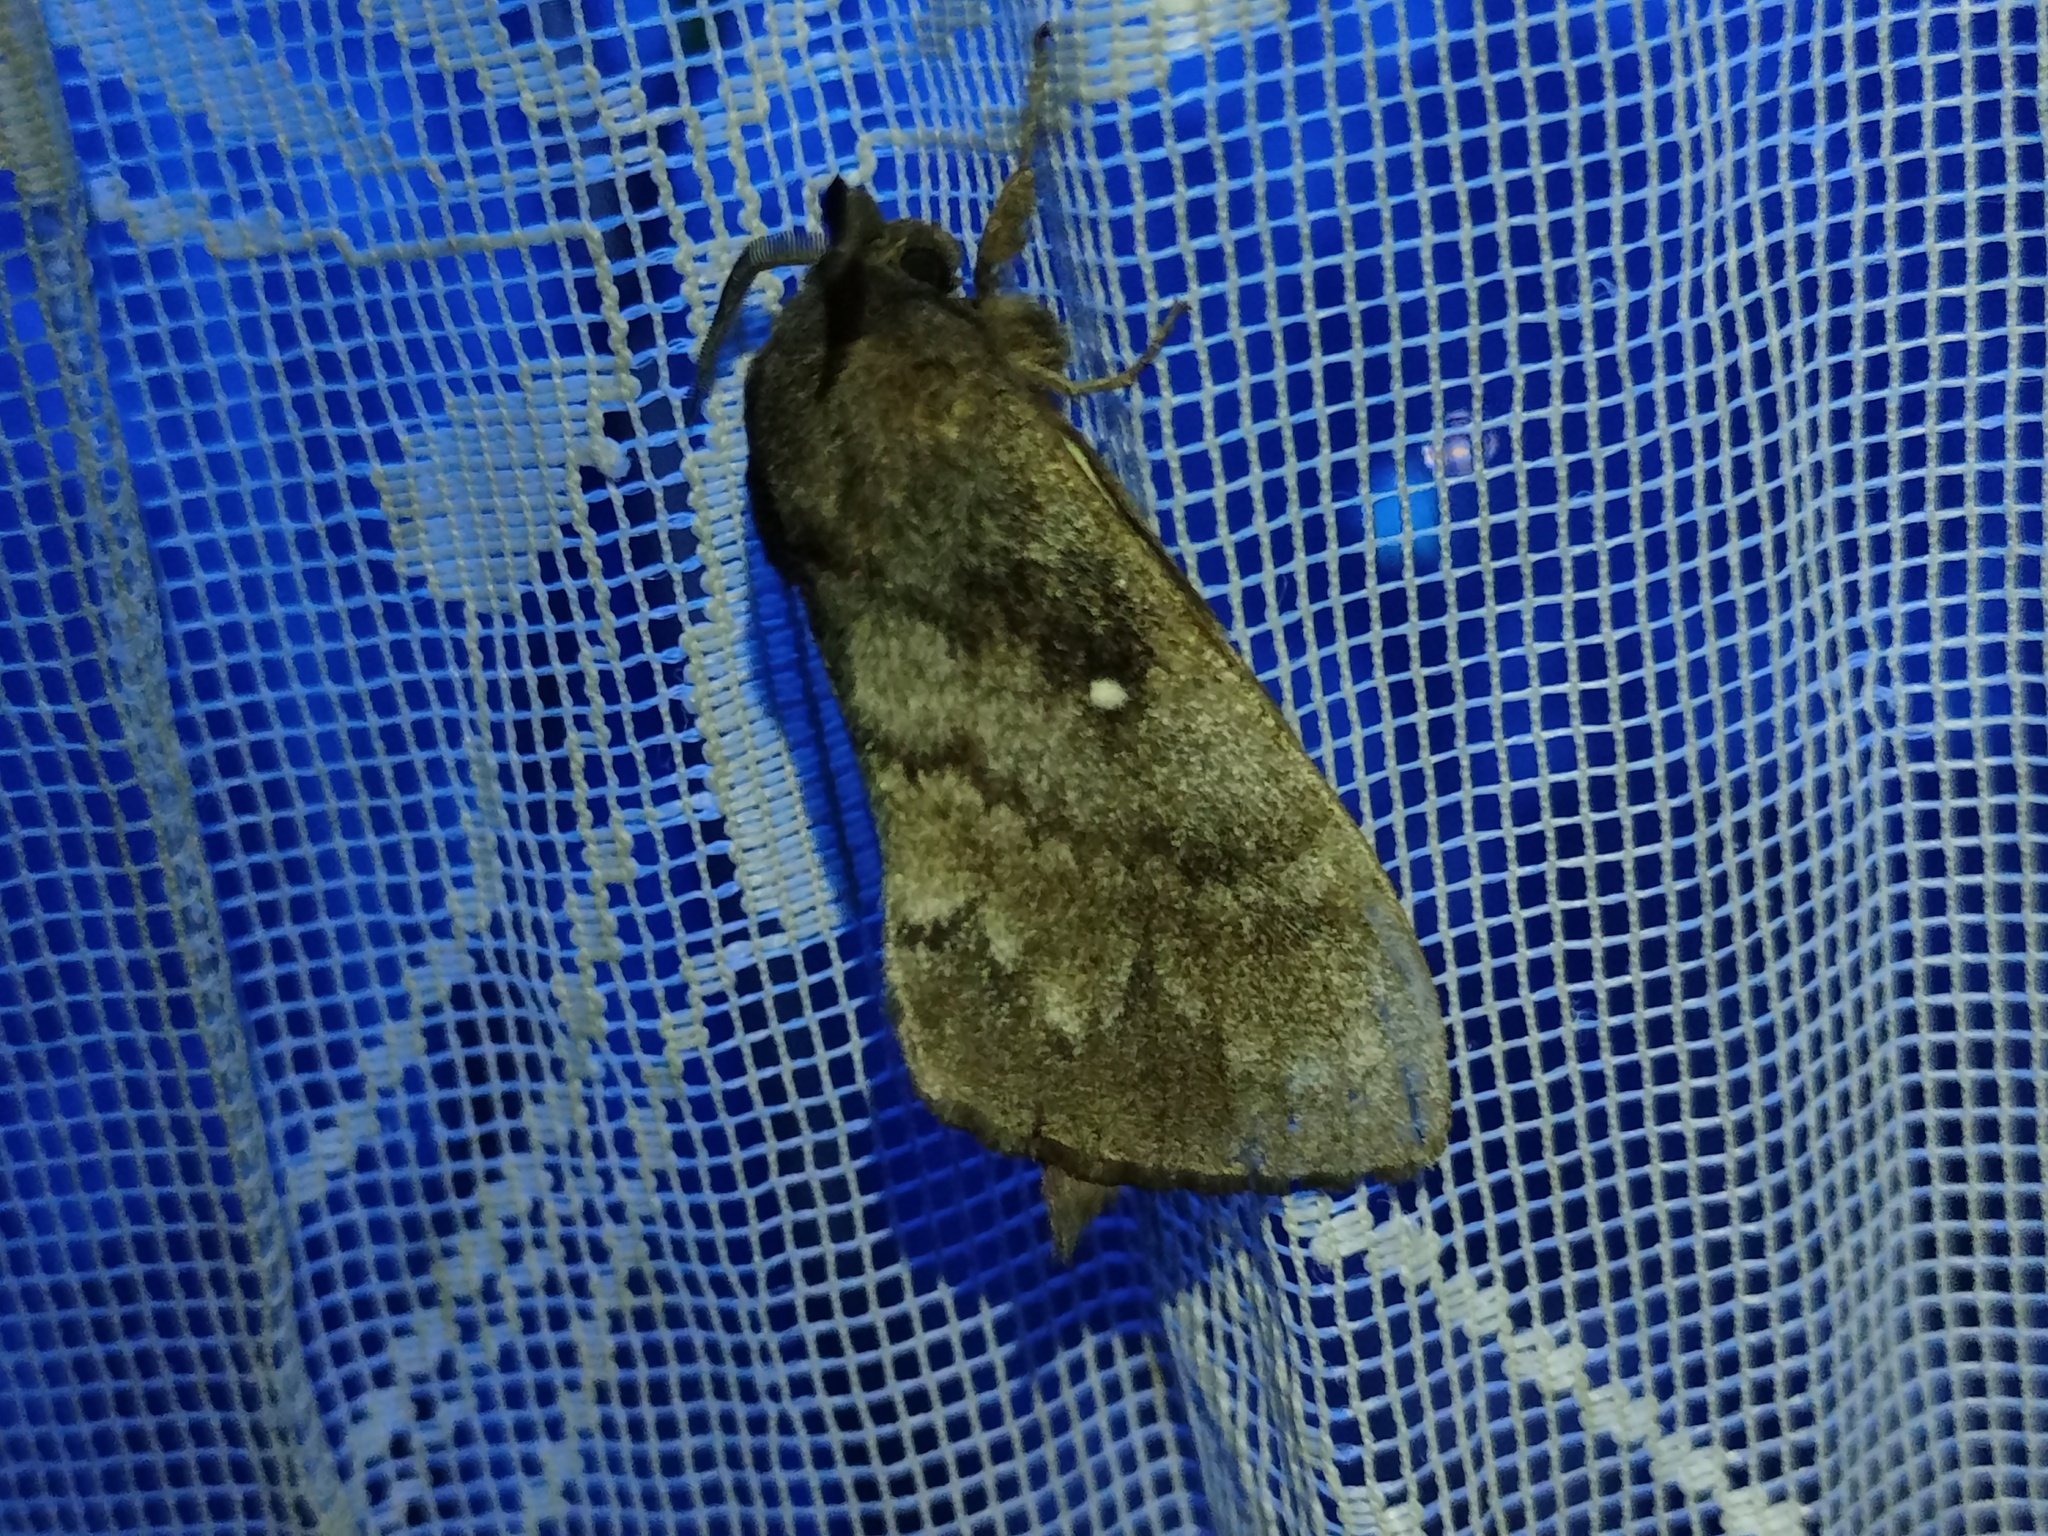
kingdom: Animalia
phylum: Arthropoda
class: Insecta
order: Lepidoptera
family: Lasiocampidae
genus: Dendrolimus
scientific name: Dendrolimus pini
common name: Pine-tree lappet
